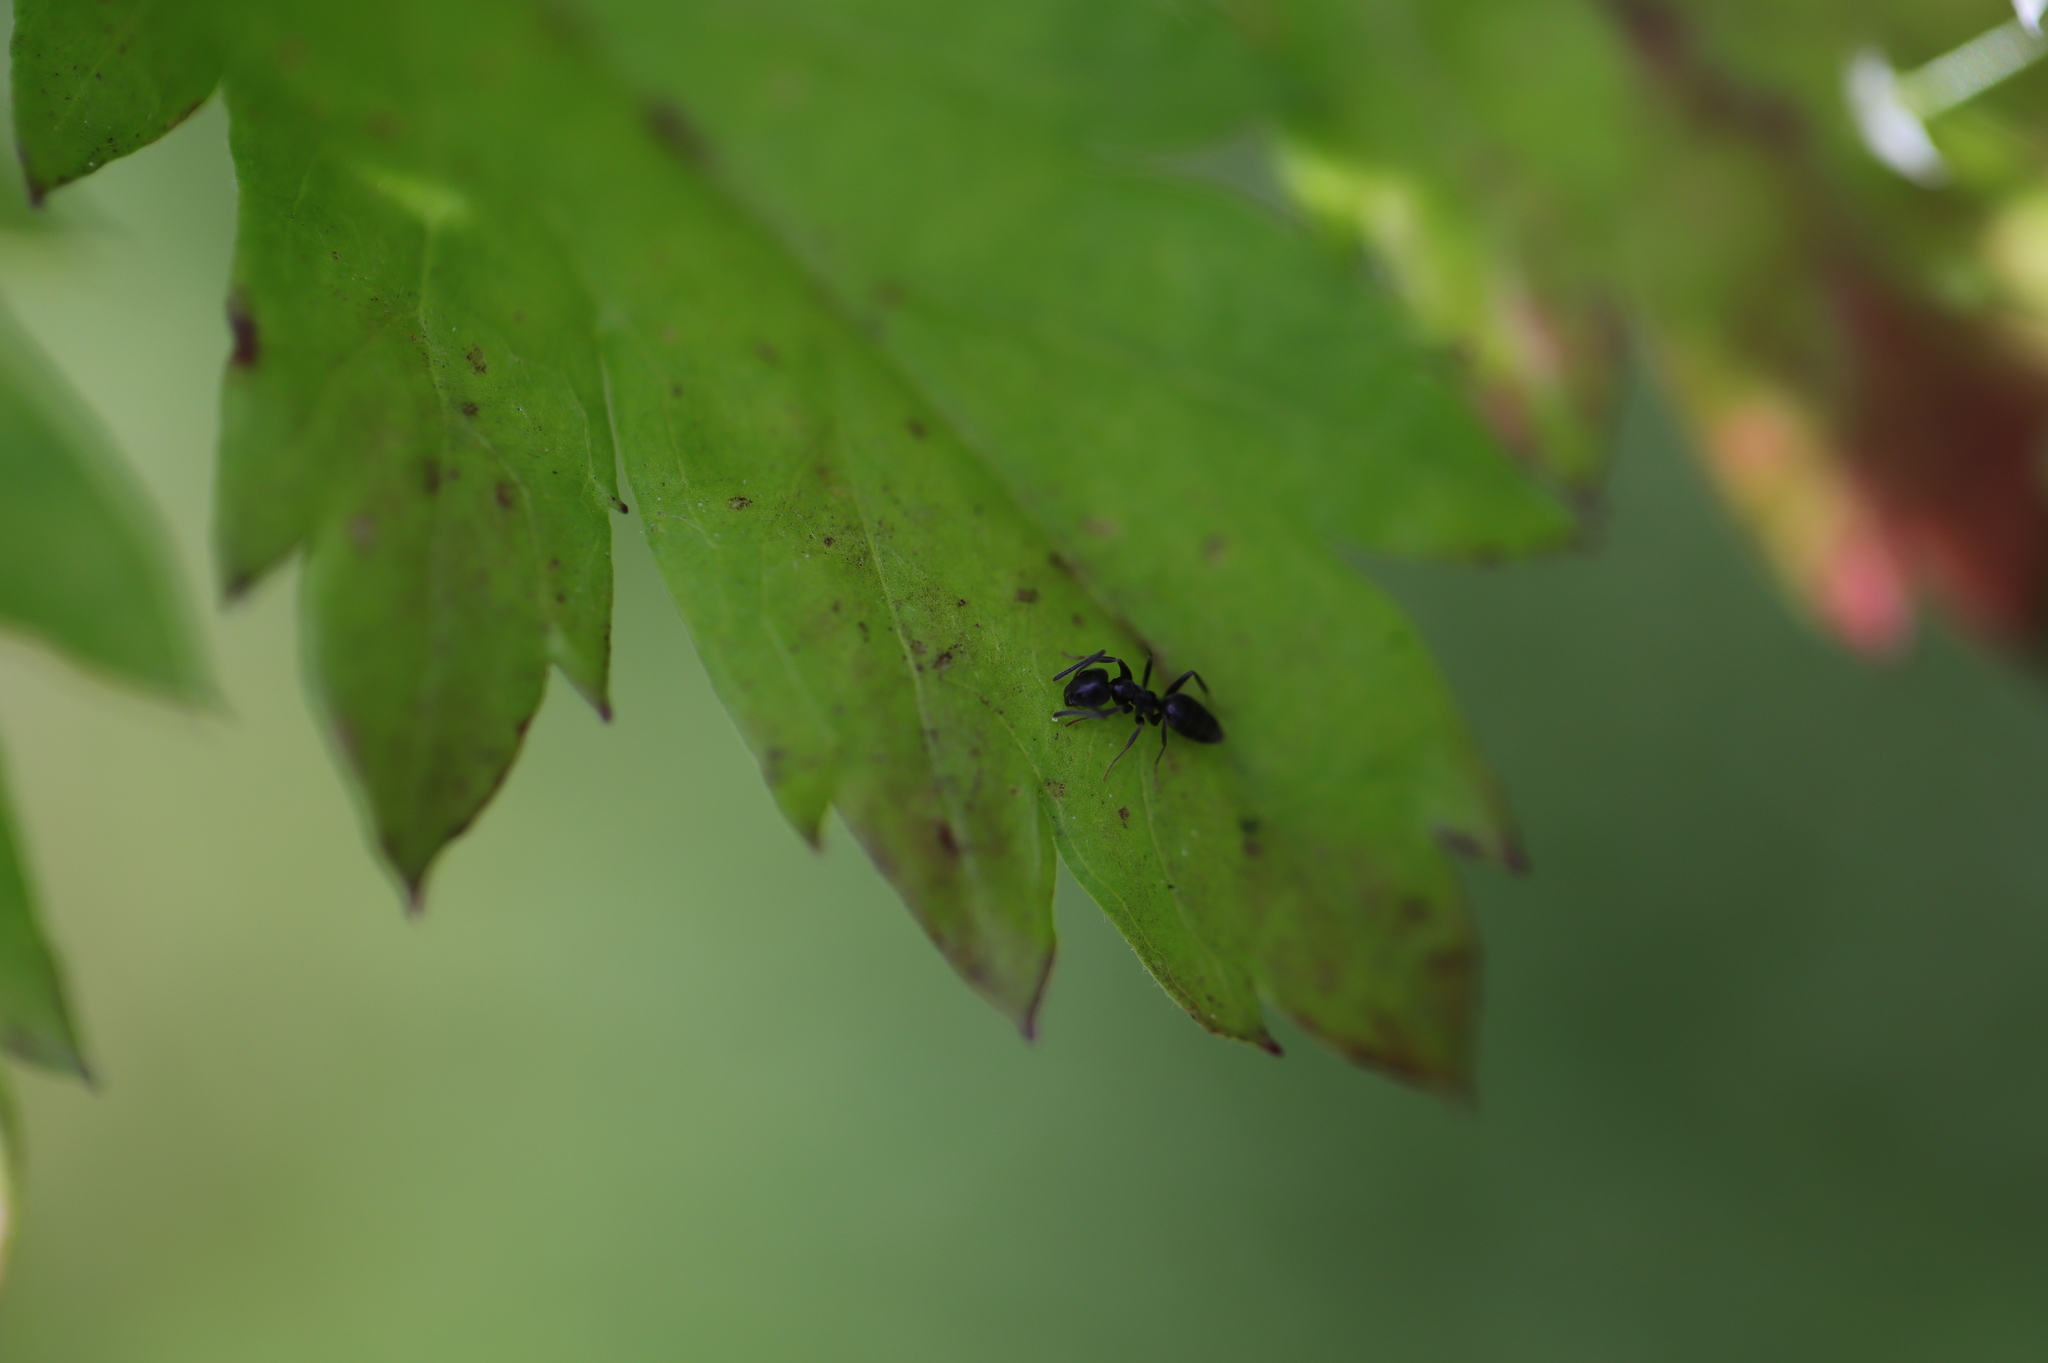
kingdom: Animalia
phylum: Arthropoda
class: Insecta
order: Hymenoptera
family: Formicidae
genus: Tapinoma
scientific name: Tapinoma sessile
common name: Odorous house ant
